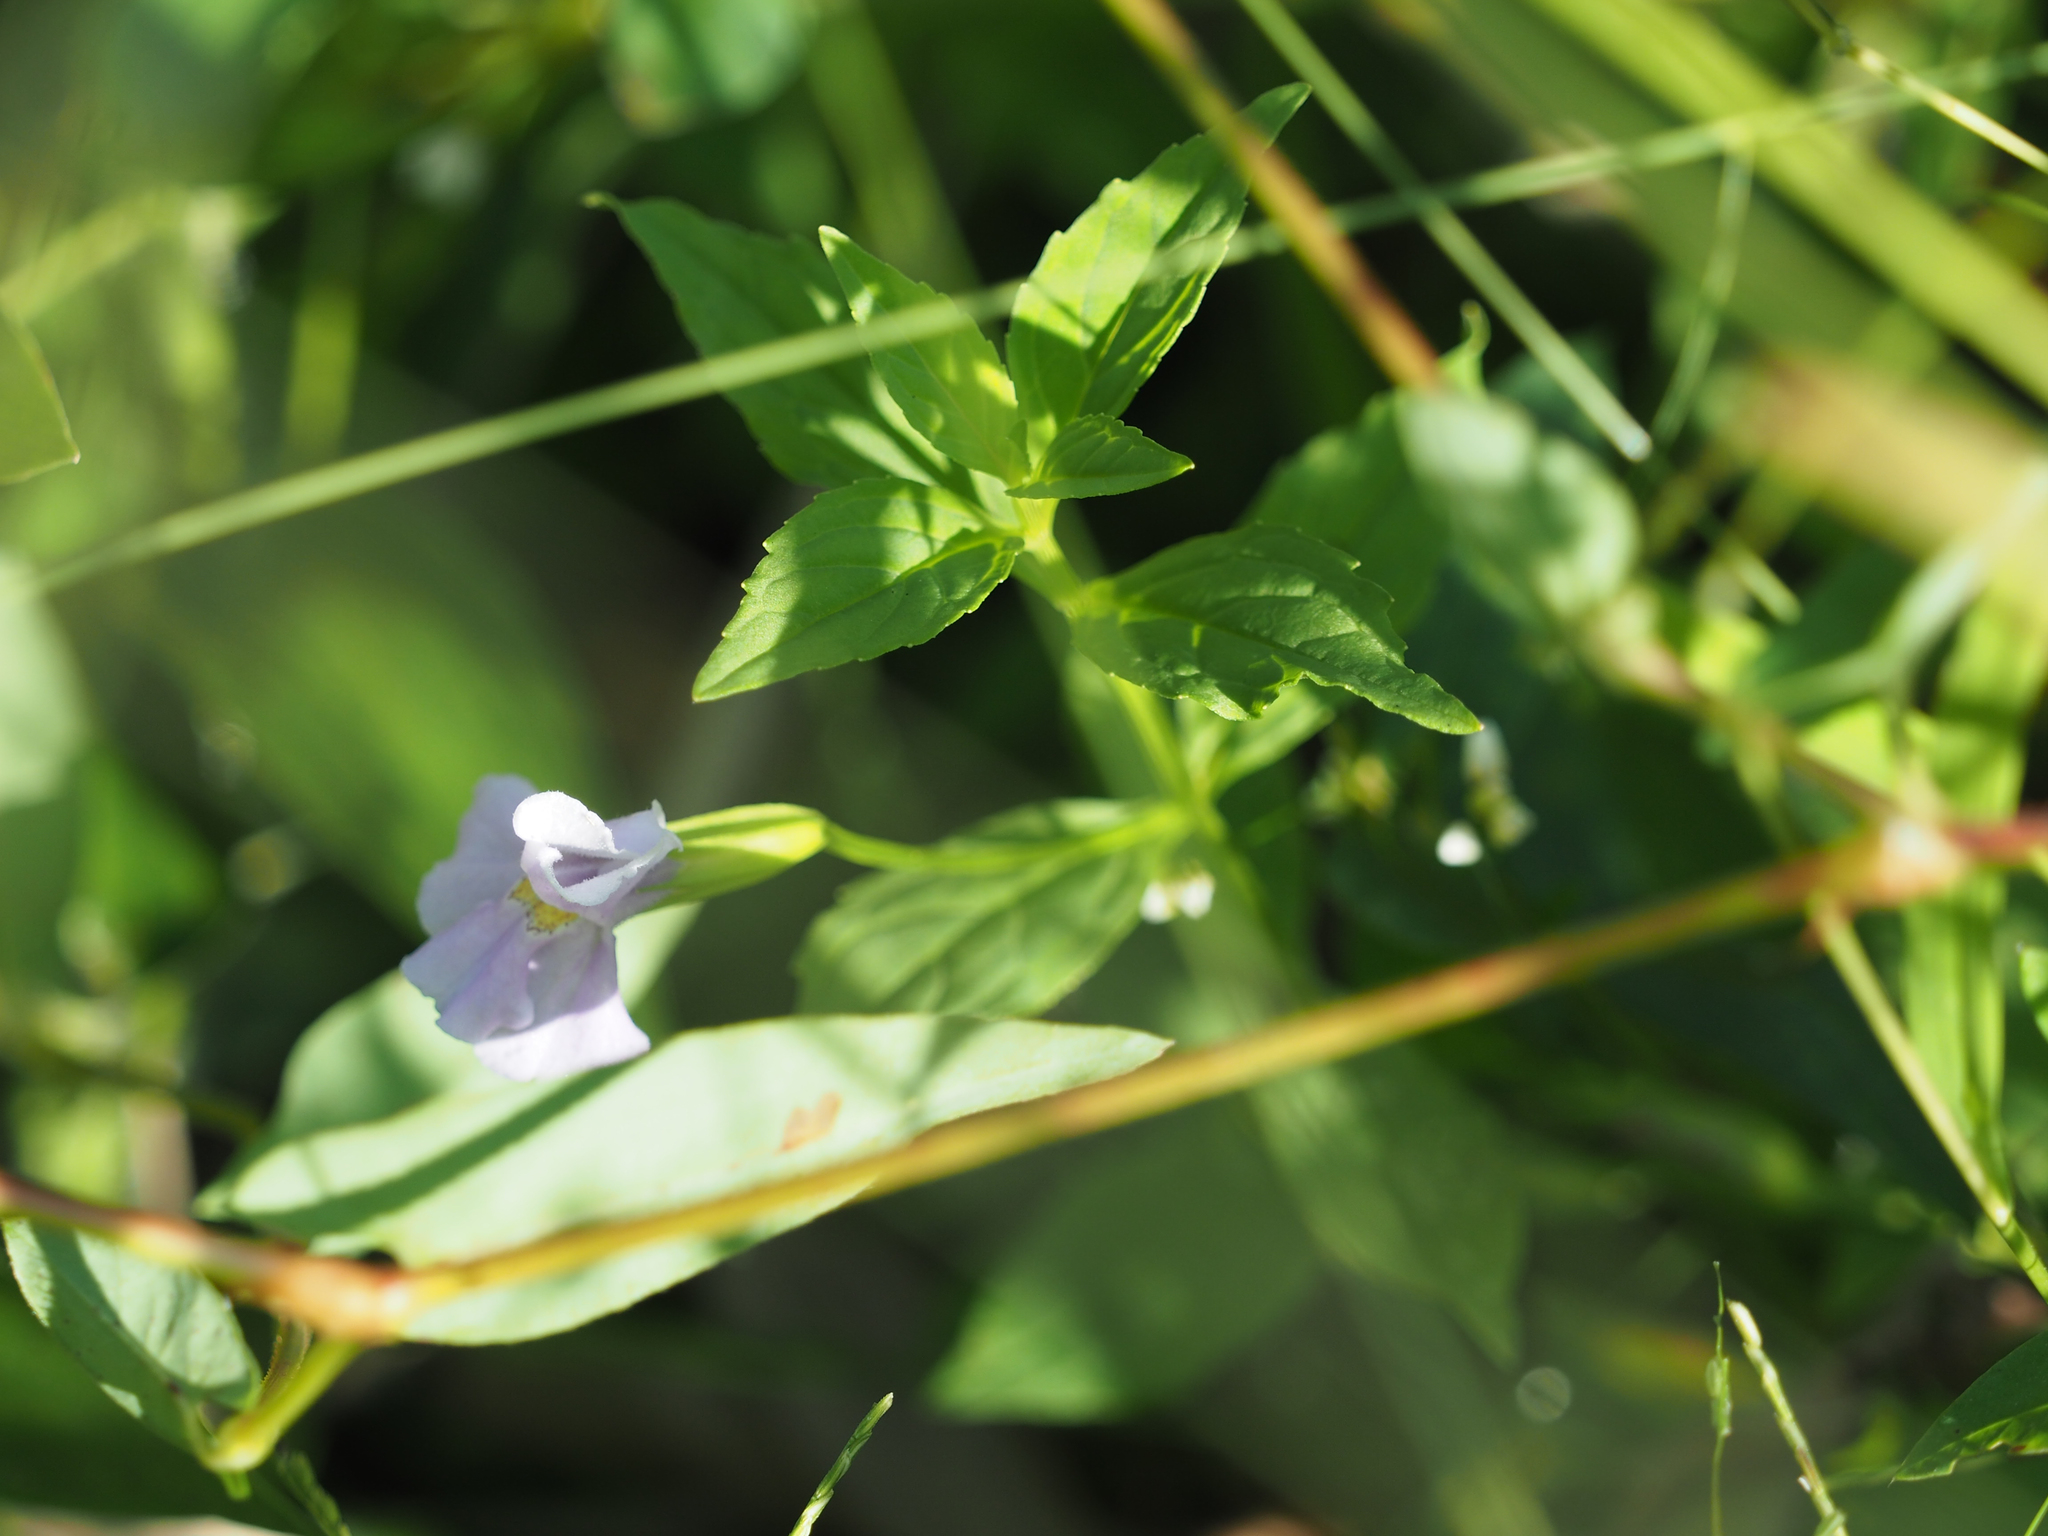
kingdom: Plantae
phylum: Tracheophyta
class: Magnoliopsida
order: Lamiales
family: Phrymaceae
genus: Mimulus
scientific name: Mimulus ringens
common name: Allegheny monkeyflower
